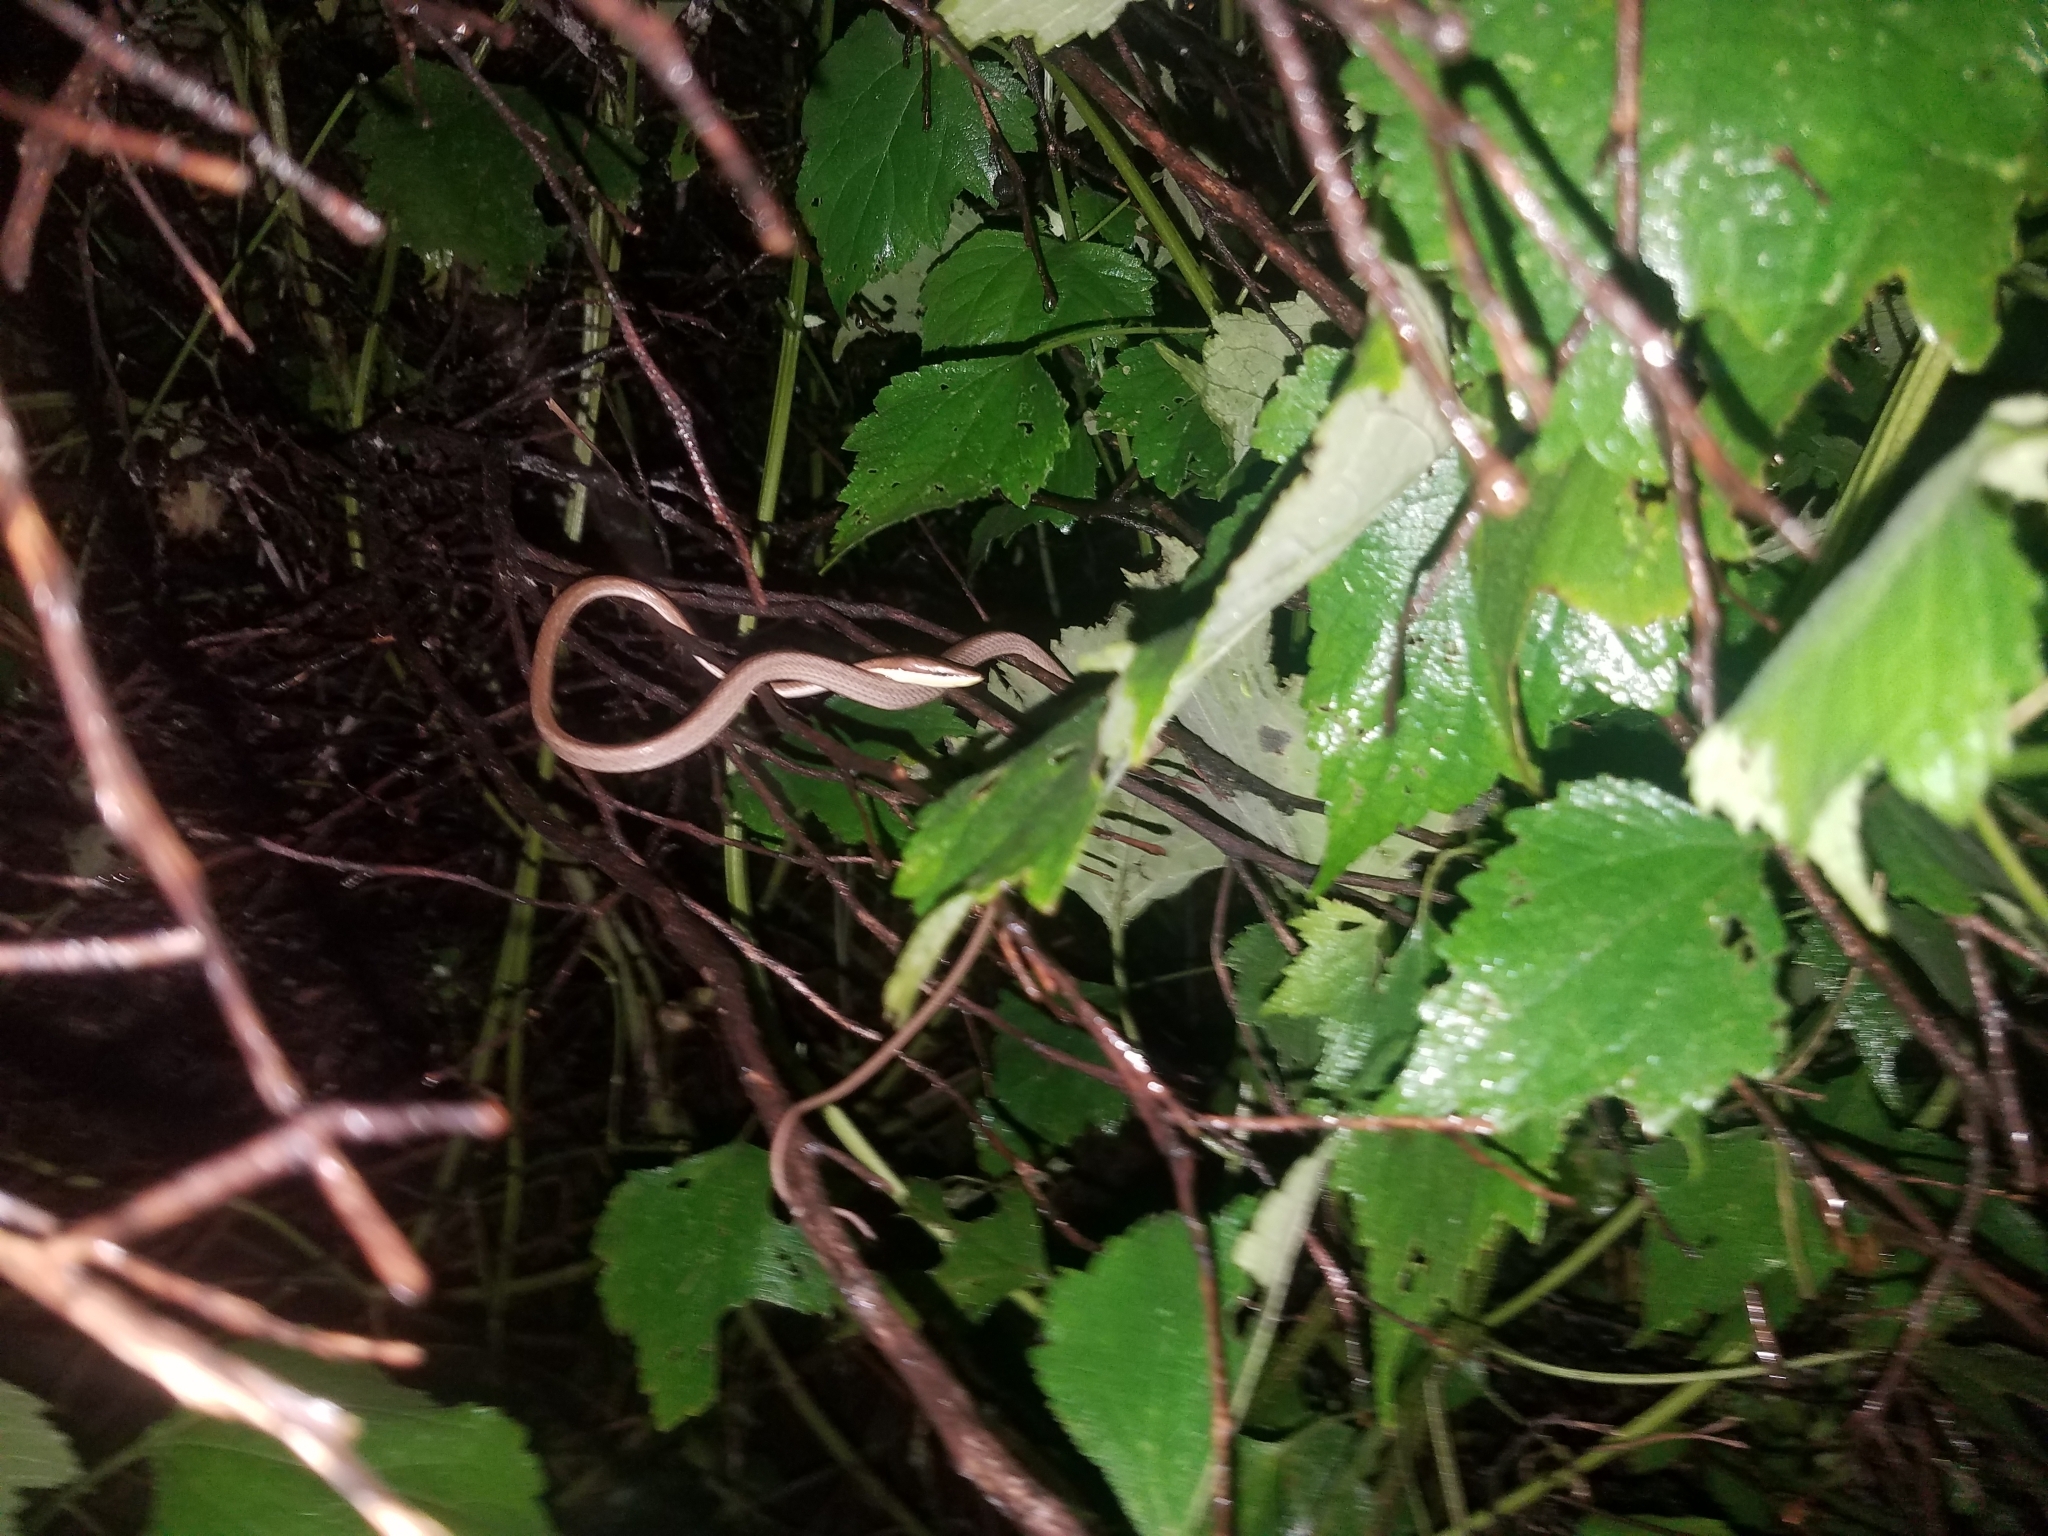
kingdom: Animalia
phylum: Chordata
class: Squamata
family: Colubridae
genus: Oxybelis
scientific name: Oxybelis koehleri
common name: Köhler’s vine snake
